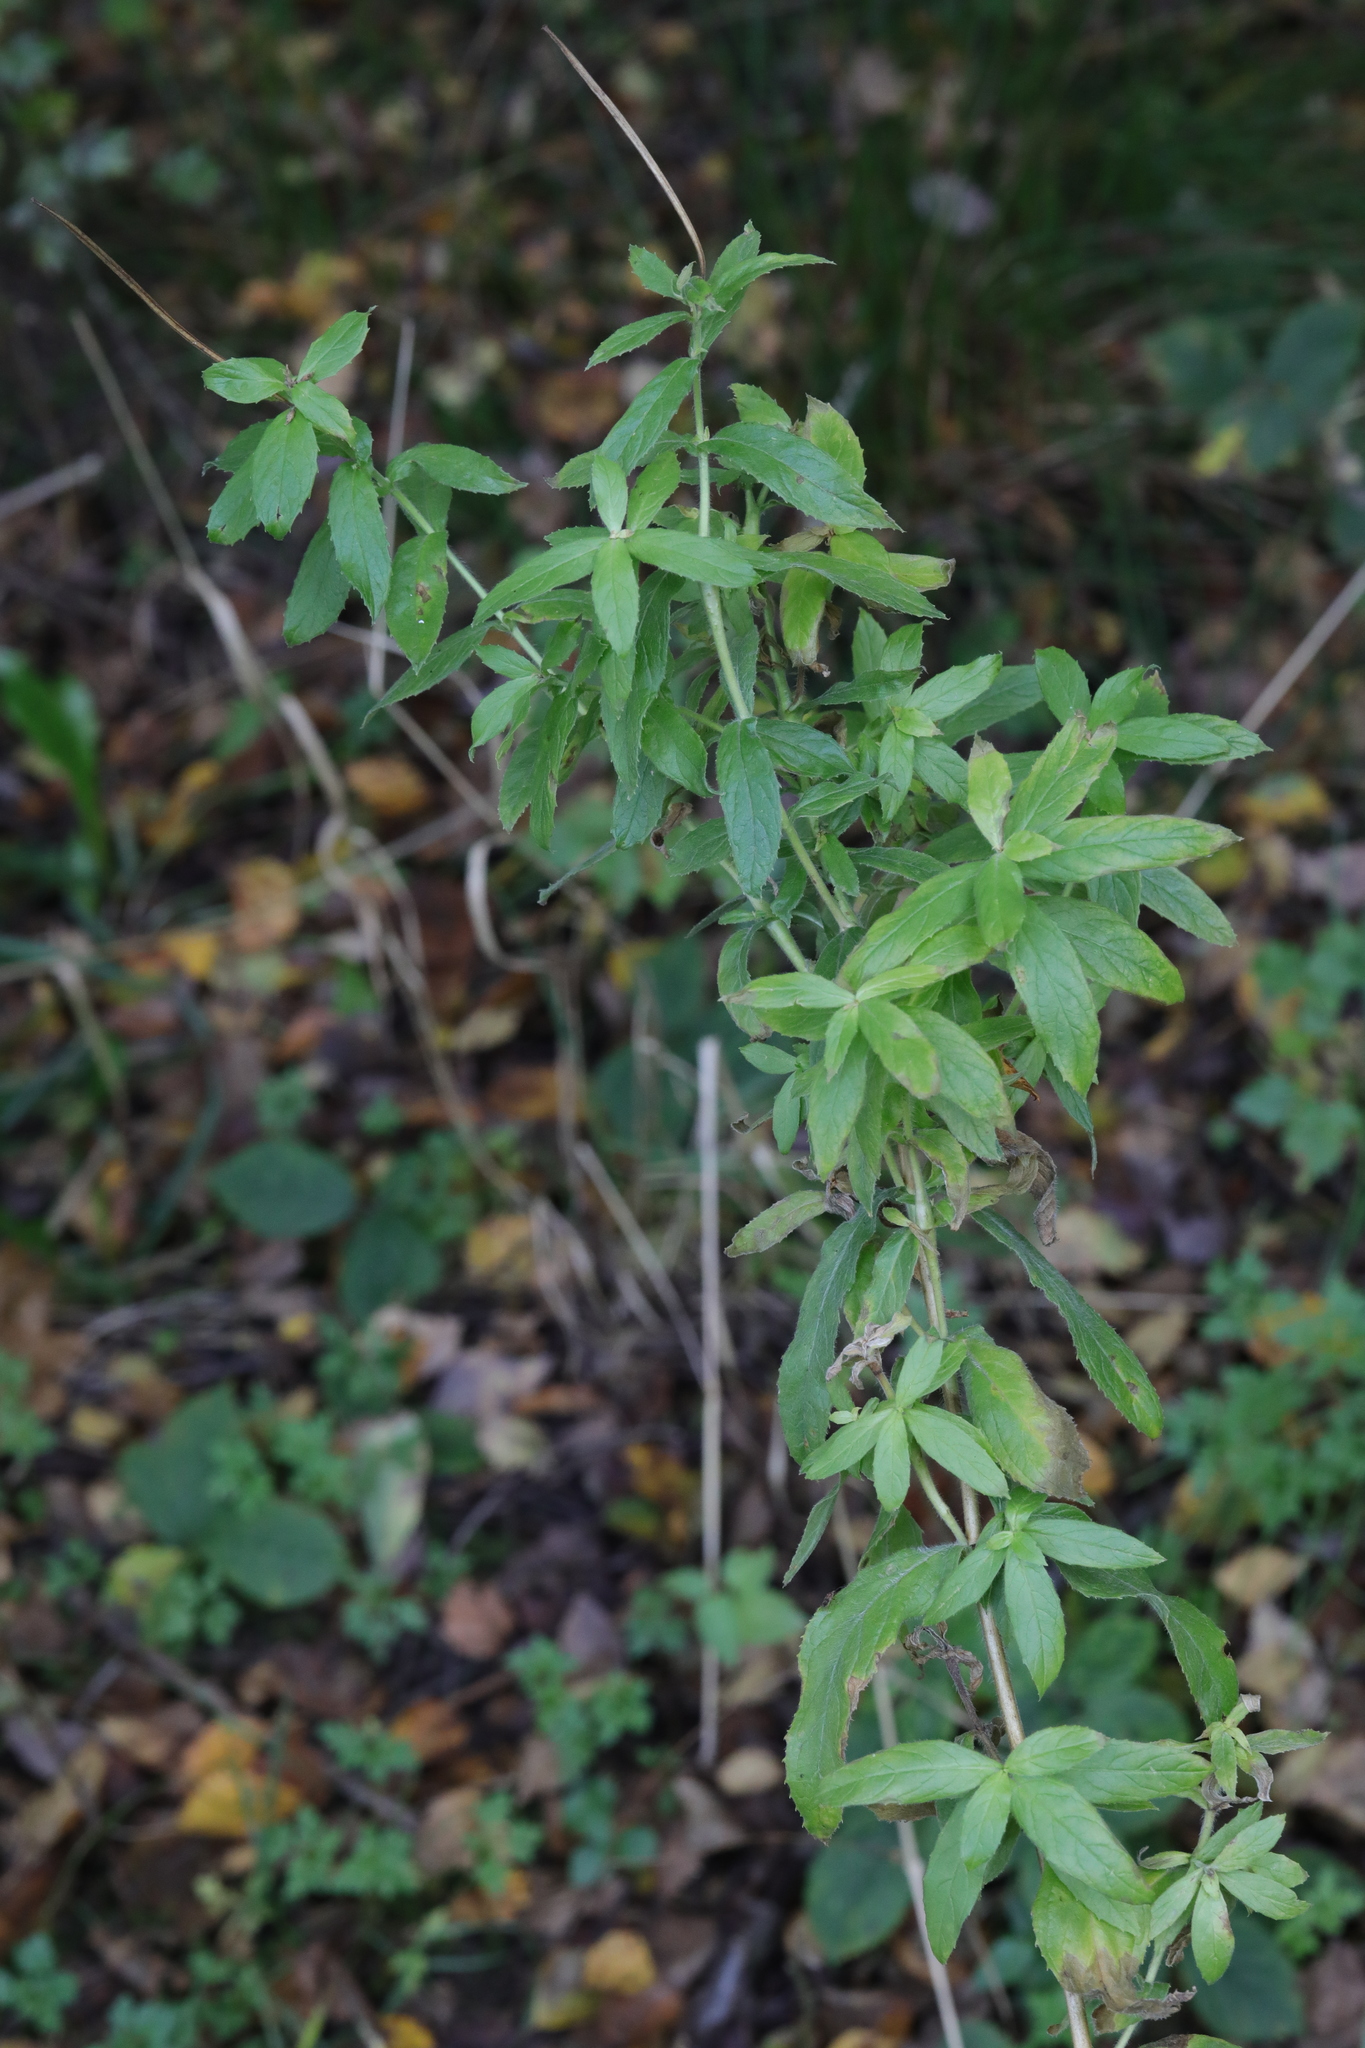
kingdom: Plantae
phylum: Tracheophyta
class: Magnoliopsida
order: Myrtales
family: Onagraceae
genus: Epilobium
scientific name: Epilobium hirsutum
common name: Great willowherb
